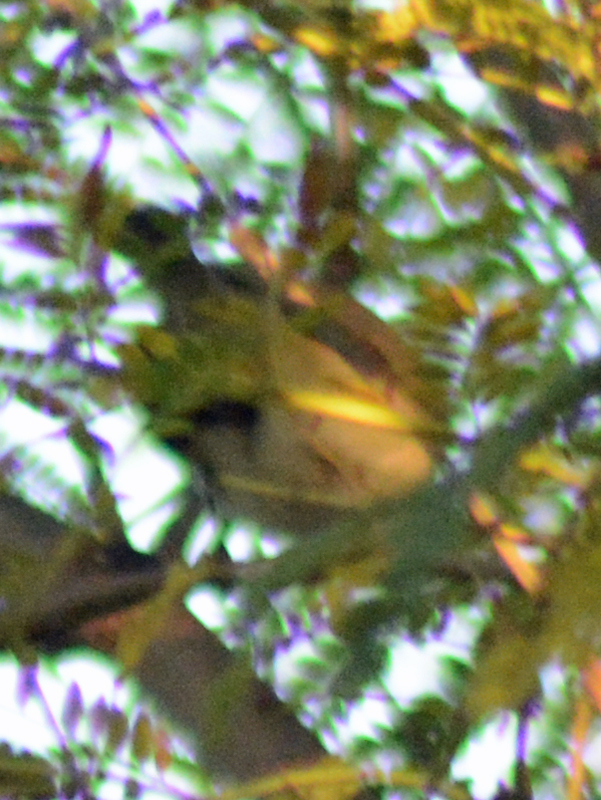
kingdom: Animalia
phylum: Chordata
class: Aves
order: Passeriformes
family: Passeridae
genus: Passer
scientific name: Passer domesticus
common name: House sparrow
